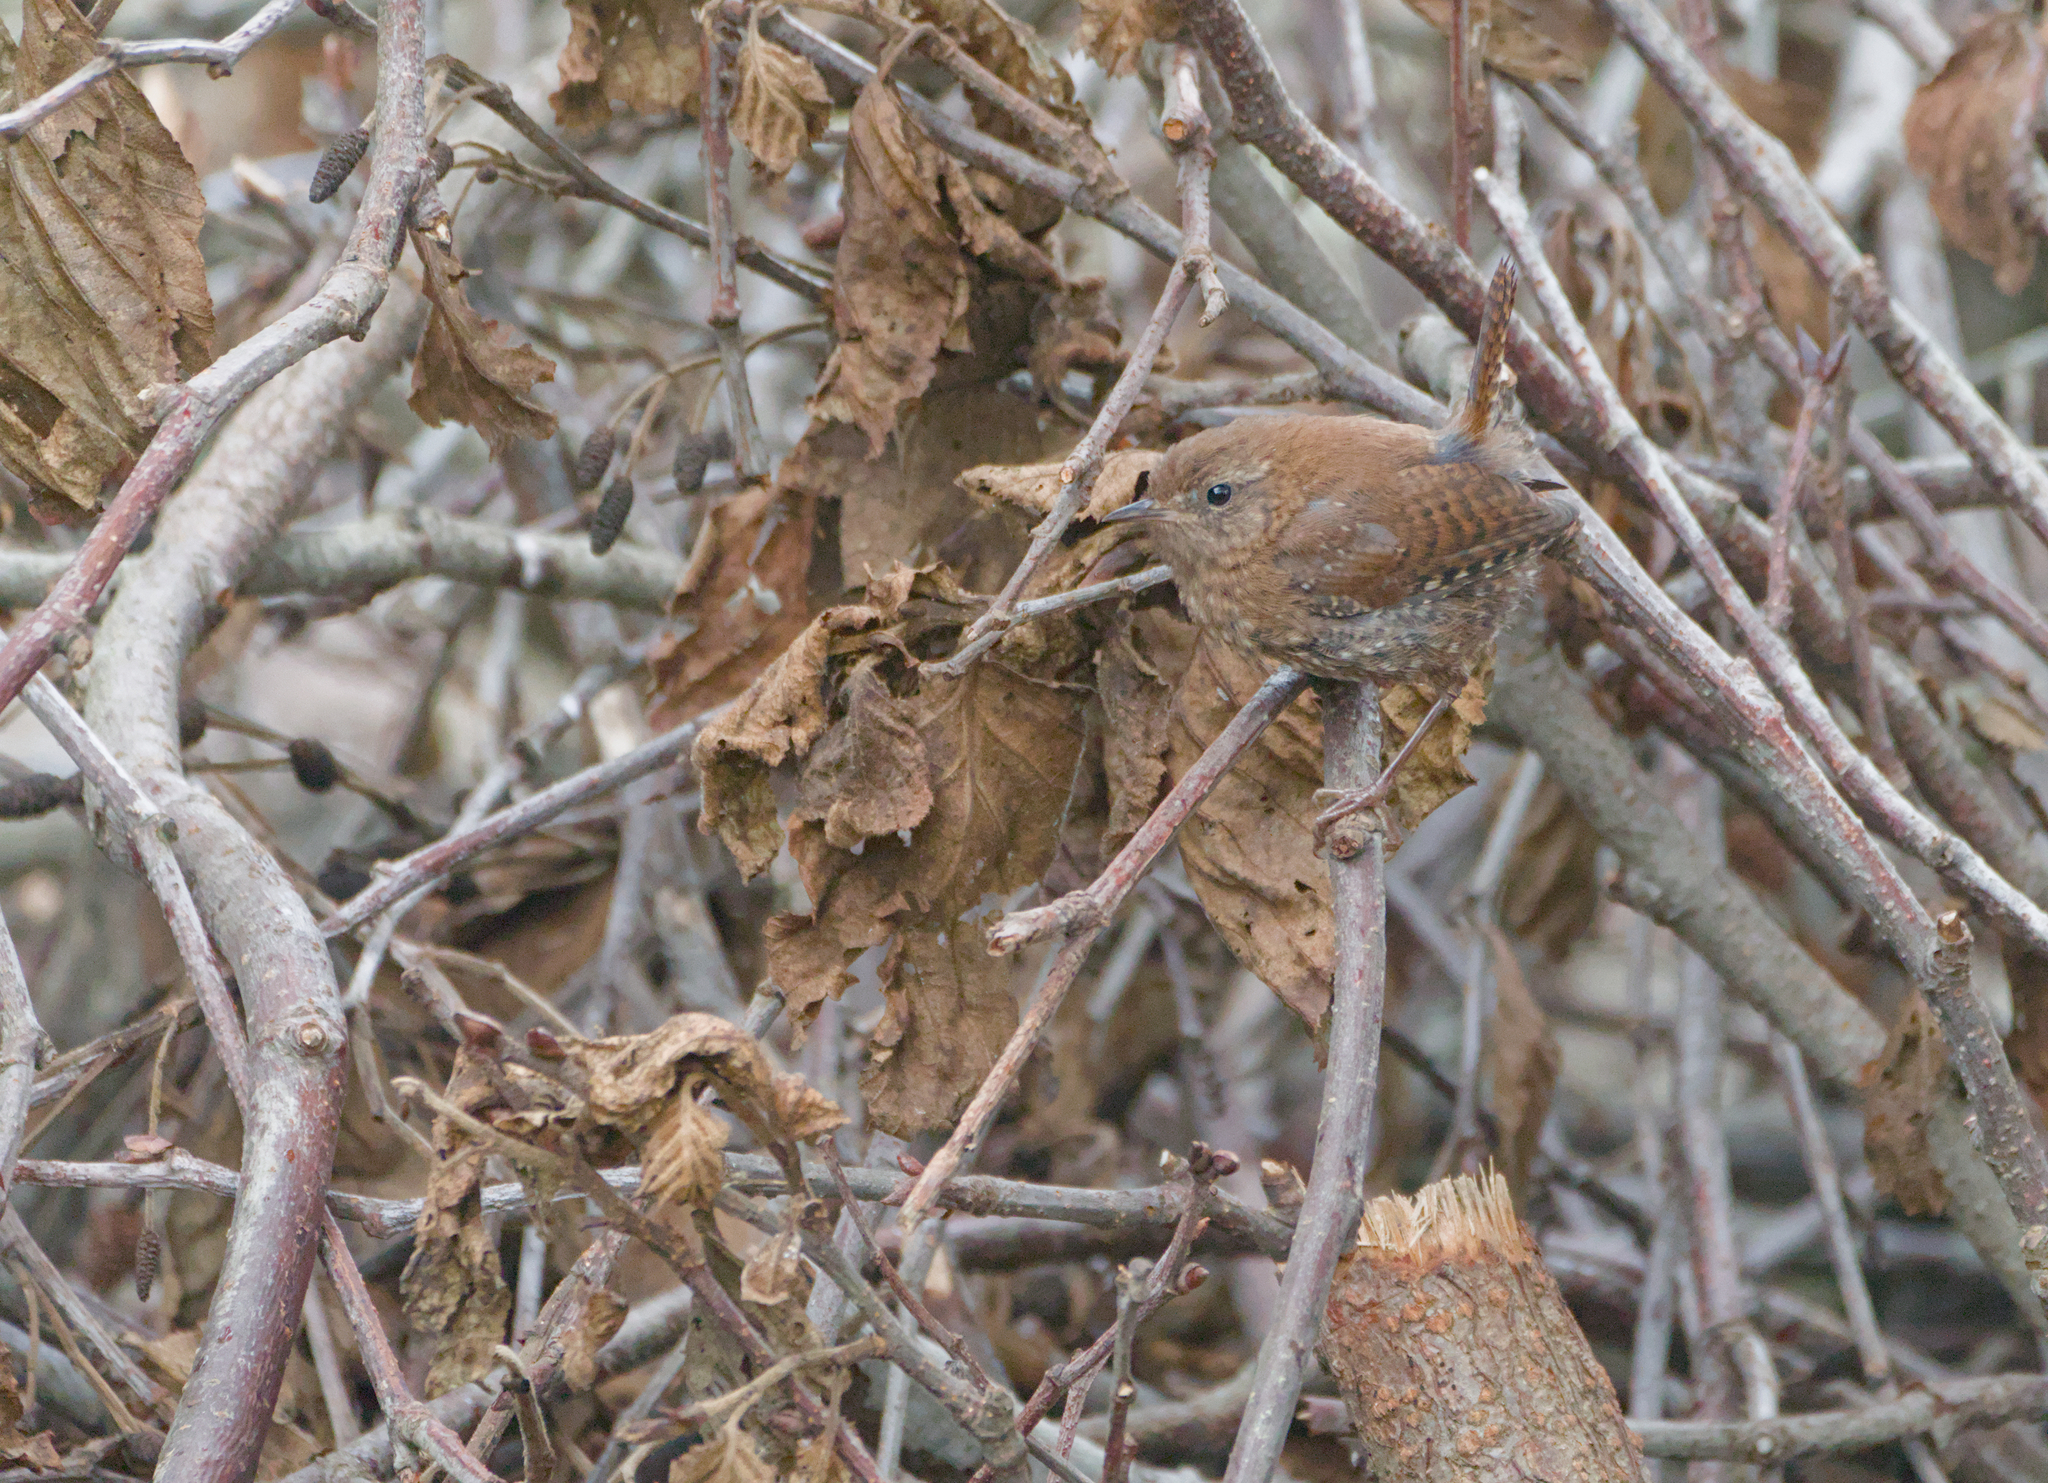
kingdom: Animalia
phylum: Chordata
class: Aves
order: Passeriformes
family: Troglodytidae
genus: Troglodytes
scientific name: Troglodytes hiemalis
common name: Winter wren
